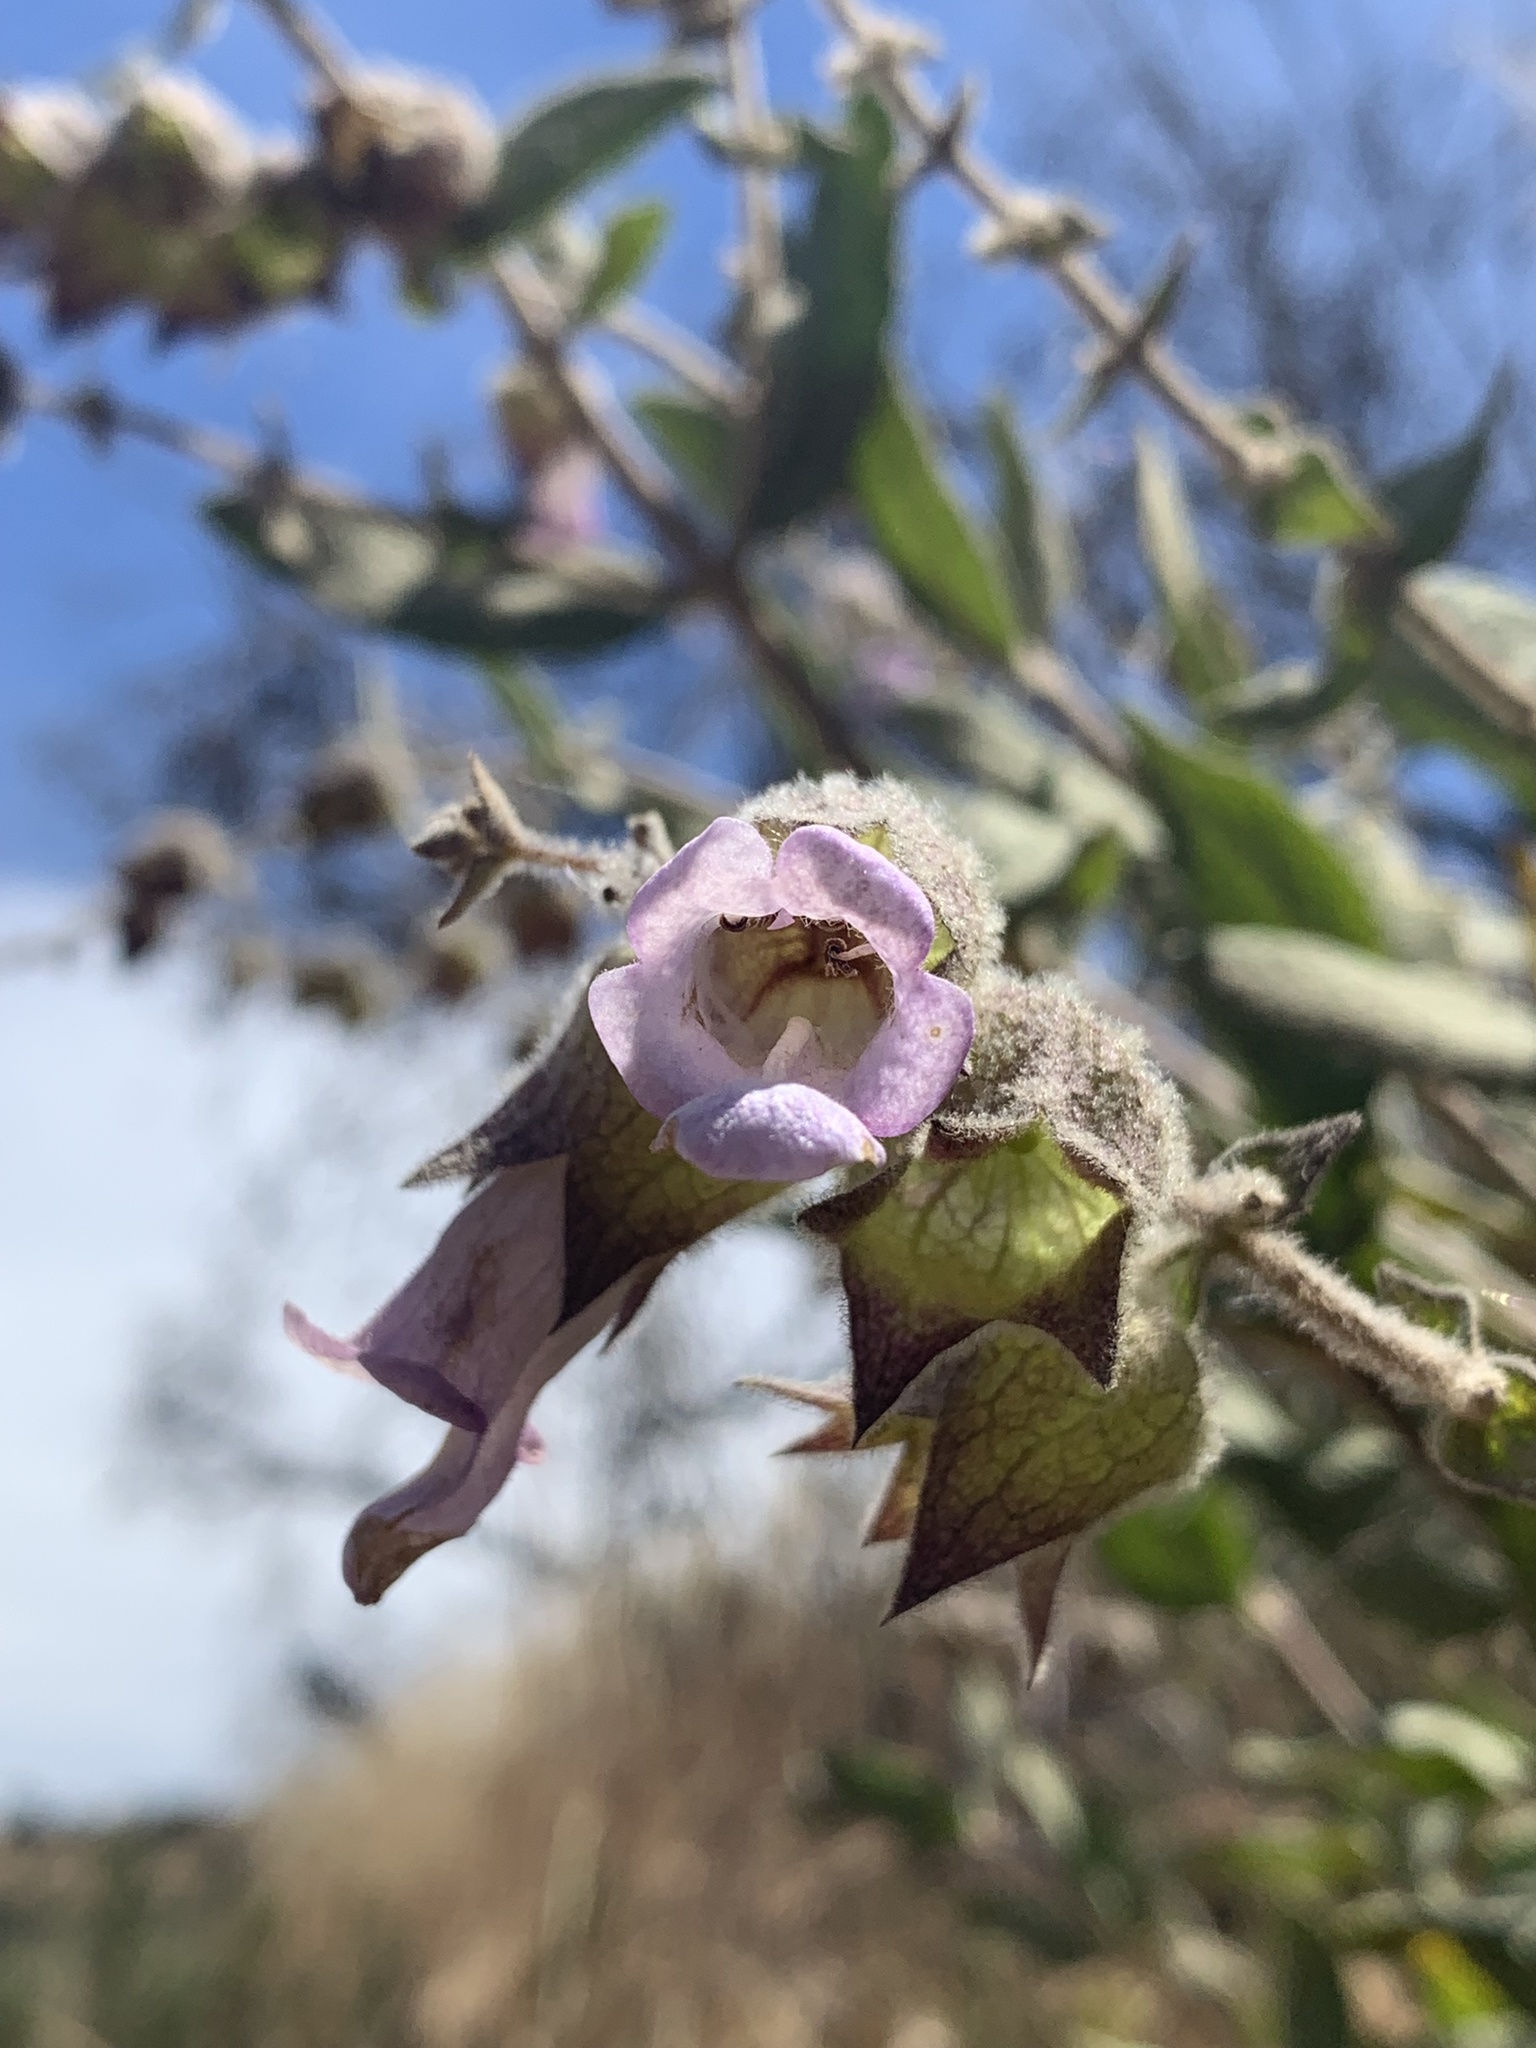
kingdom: Plantae
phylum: Tracheophyta
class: Magnoliopsida
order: Lamiales
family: Lamiaceae
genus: Lepechinia
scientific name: Lepechinia calycina
